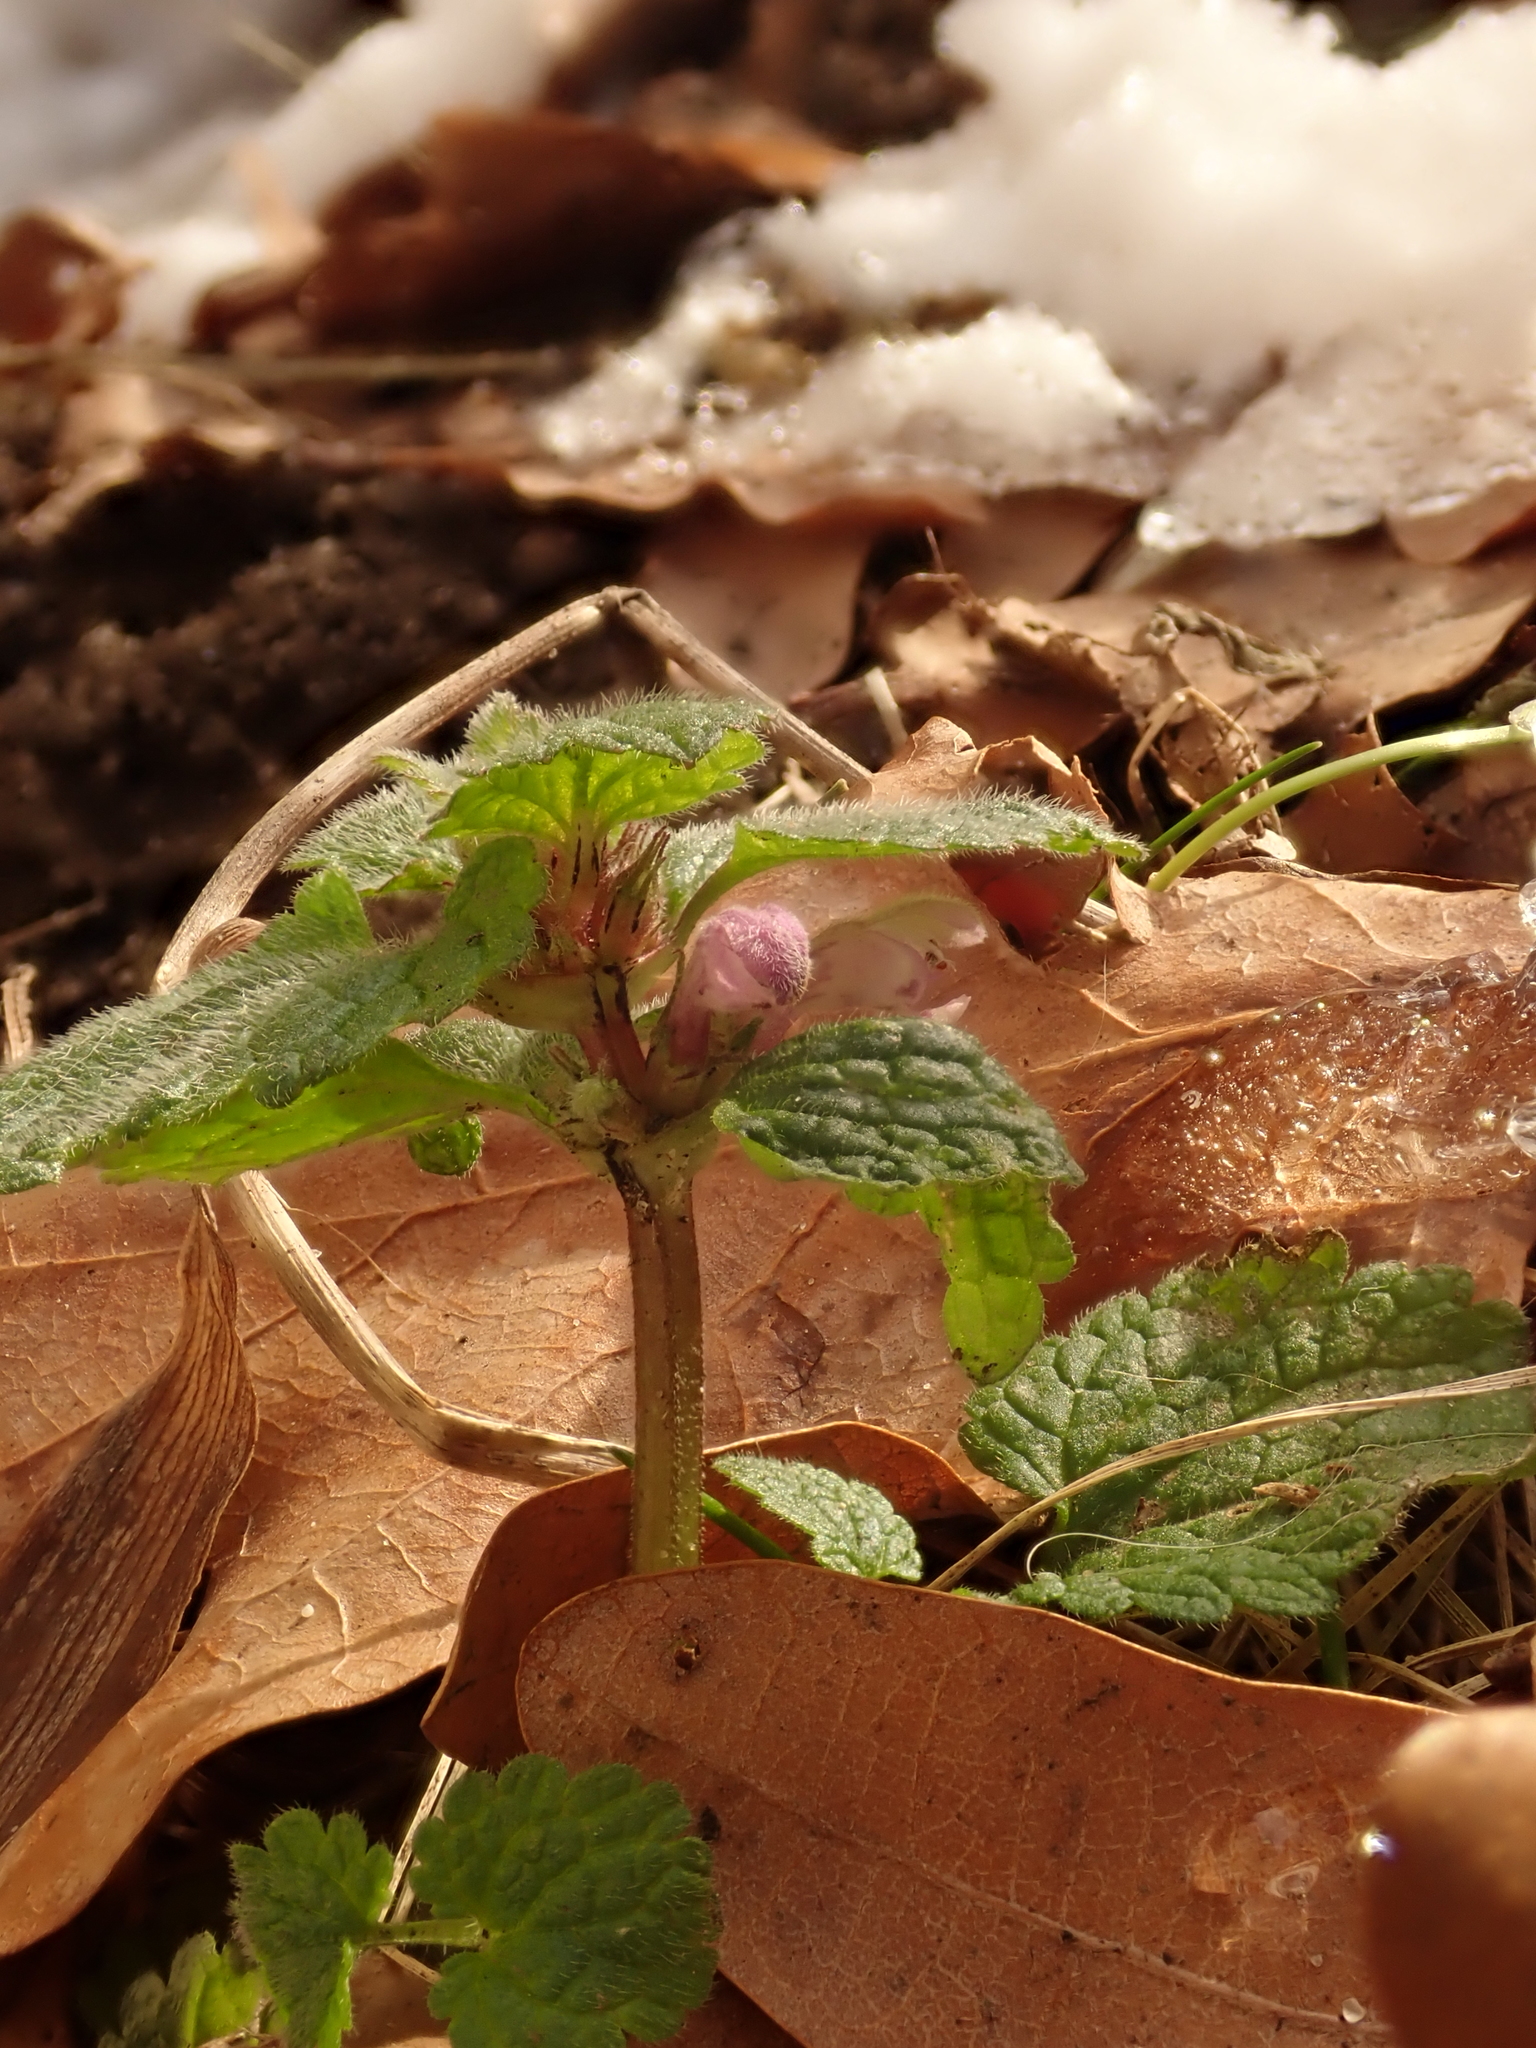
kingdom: Plantae
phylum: Tracheophyta
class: Magnoliopsida
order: Lamiales
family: Lamiaceae
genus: Lamium
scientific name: Lamium purpureum
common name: Red dead-nettle
